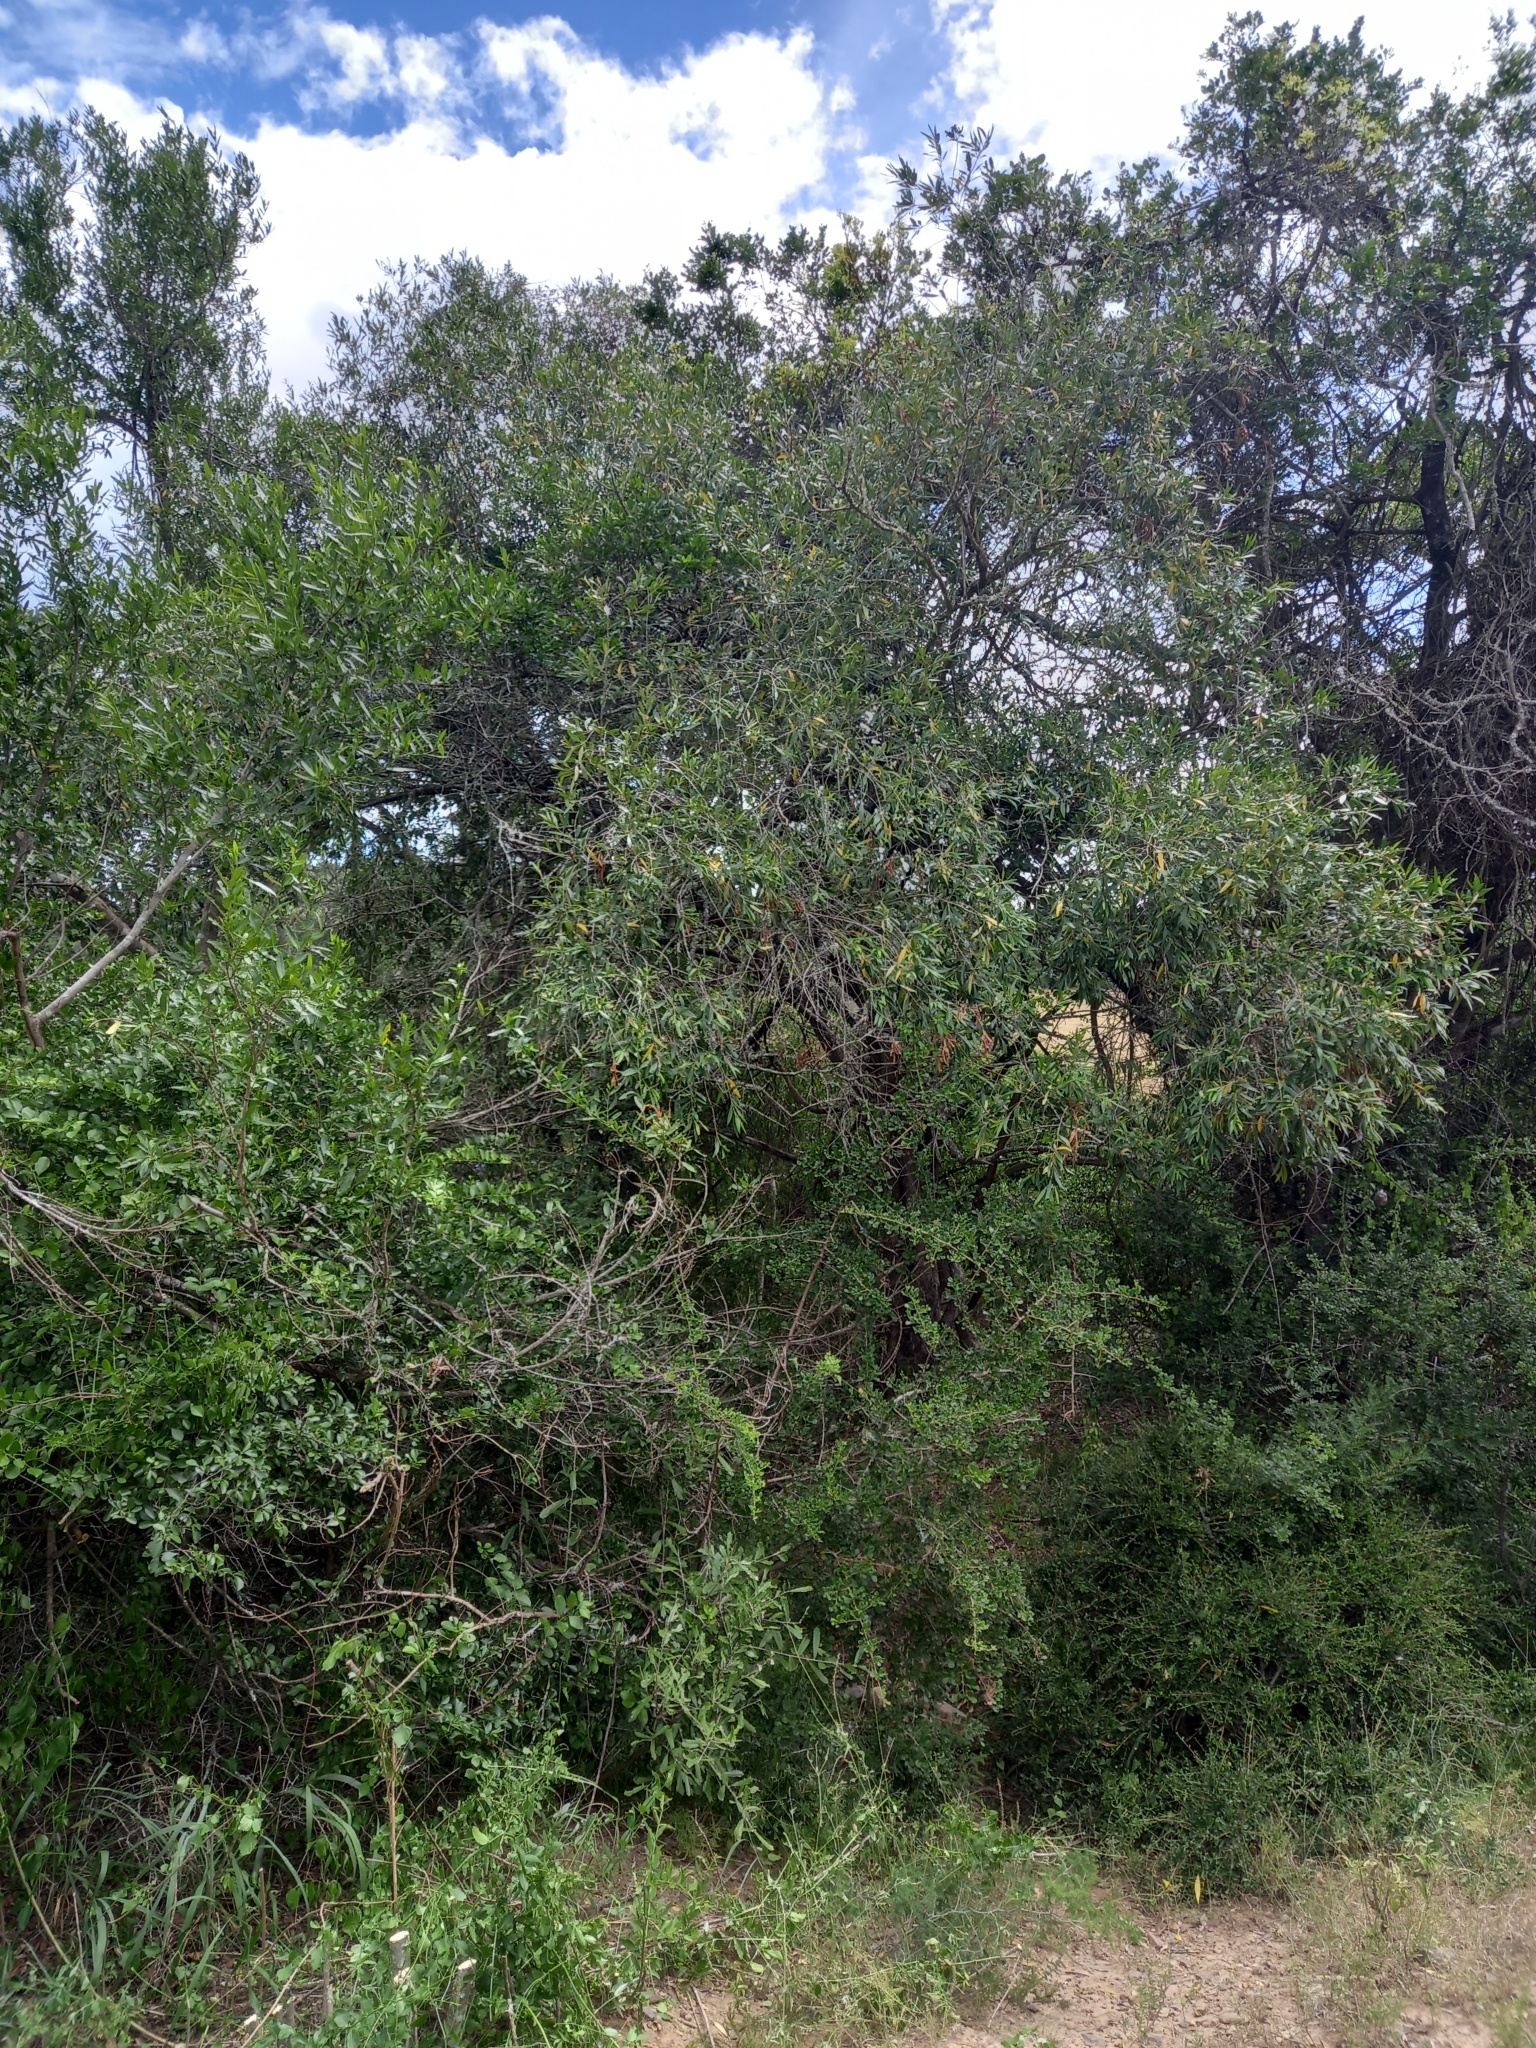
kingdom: Plantae
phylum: Tracheophyta
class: Magnoliopsida
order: Lamiales
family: Oleaceae
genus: Olea
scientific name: Olea europaea
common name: Olive
